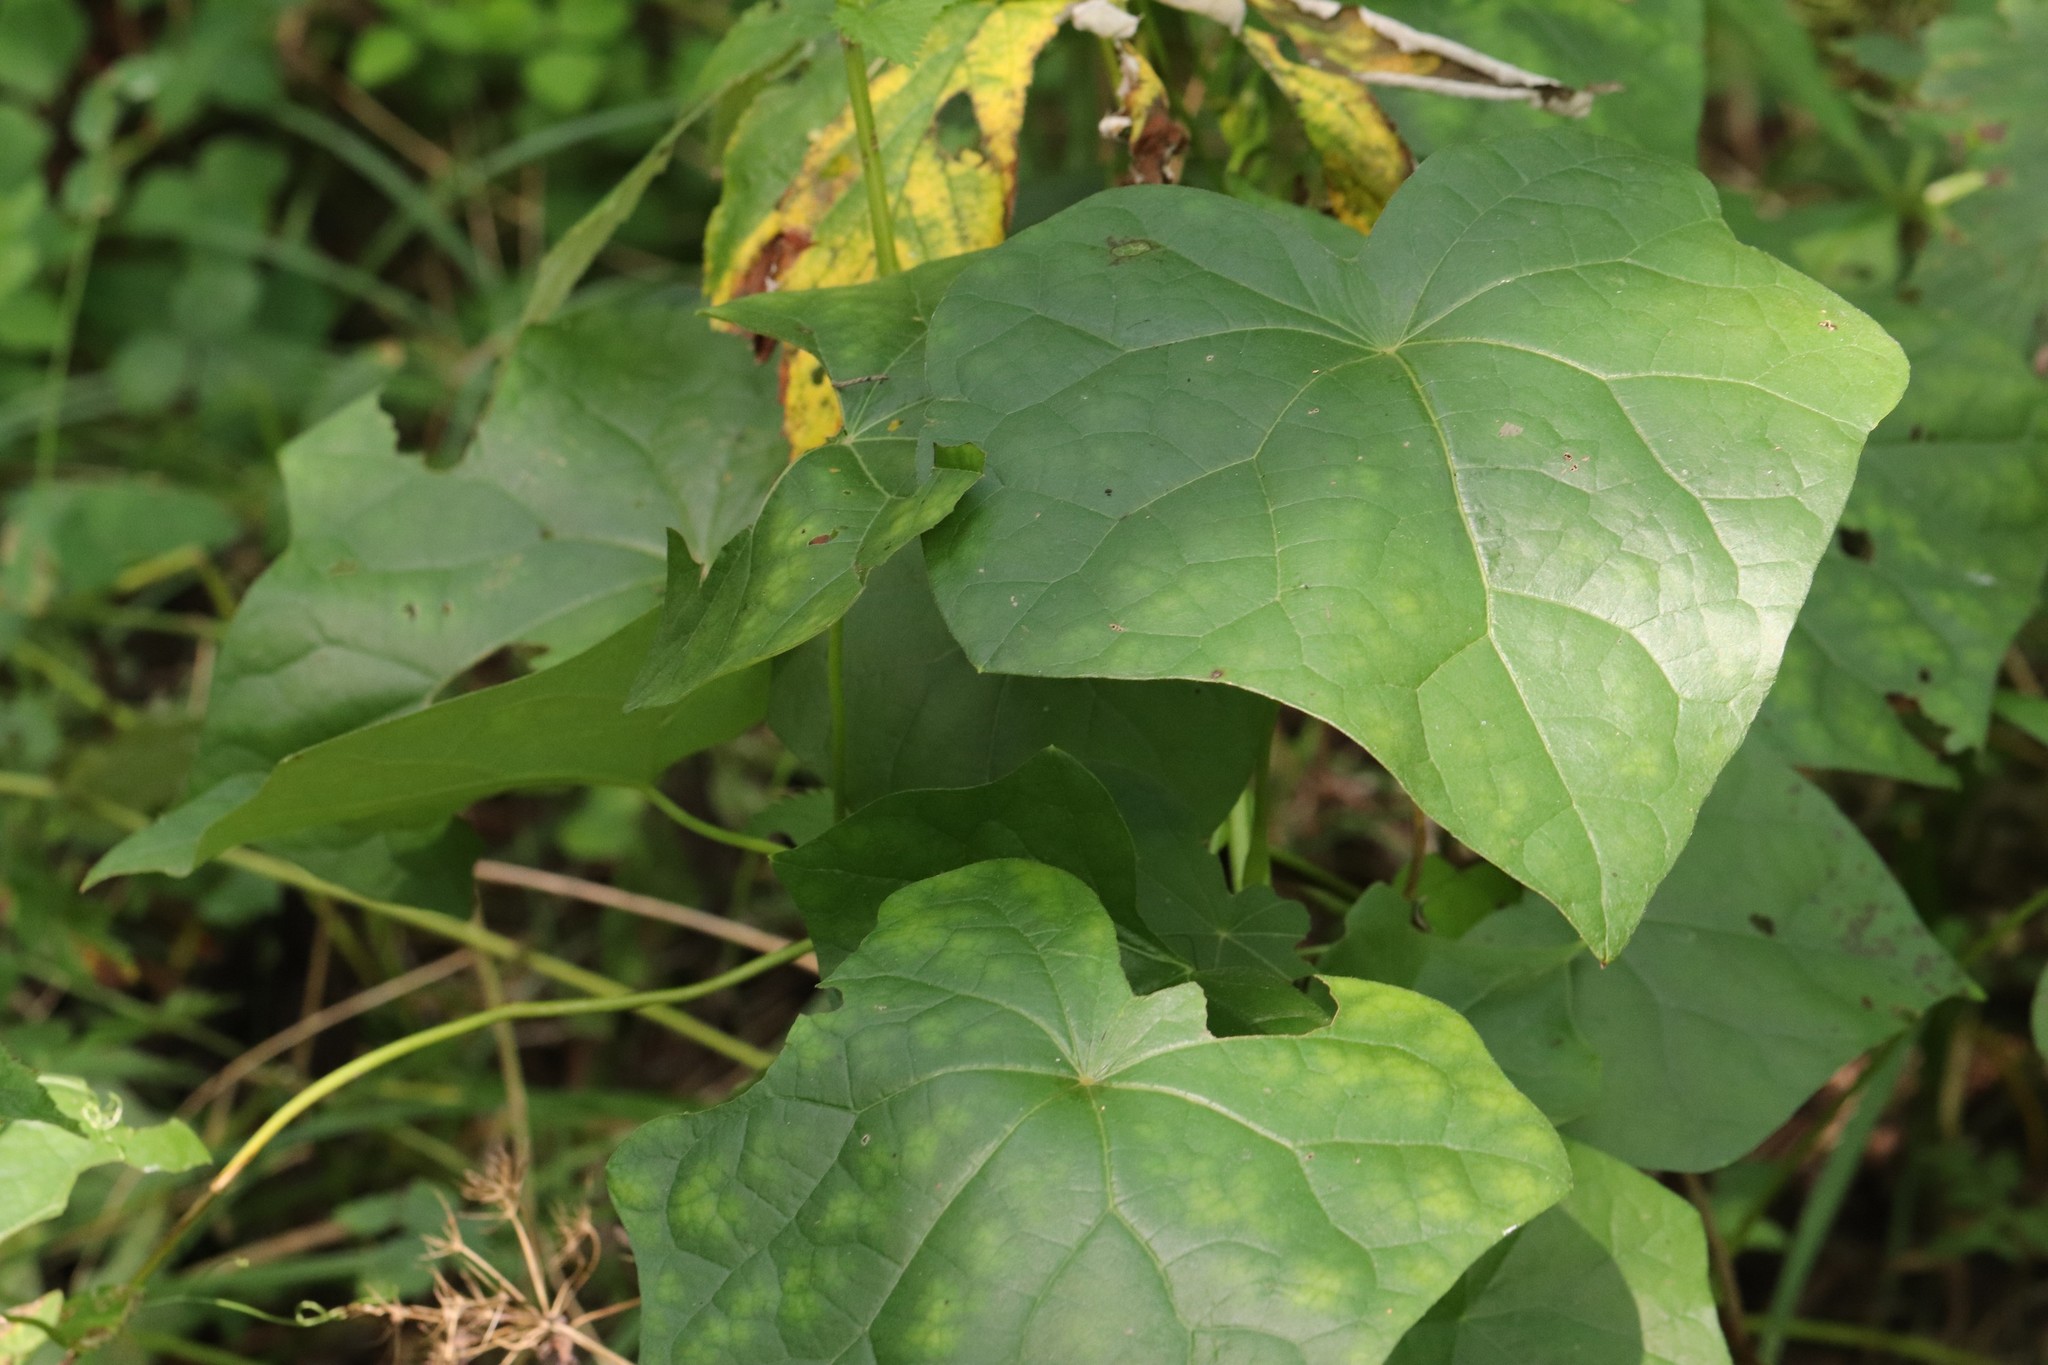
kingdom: Plantae
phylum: Tracheophyta
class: Magnoliopsida
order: Ranunculales
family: Menispermaceae
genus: Menispermum
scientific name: Menispermum dauricum
